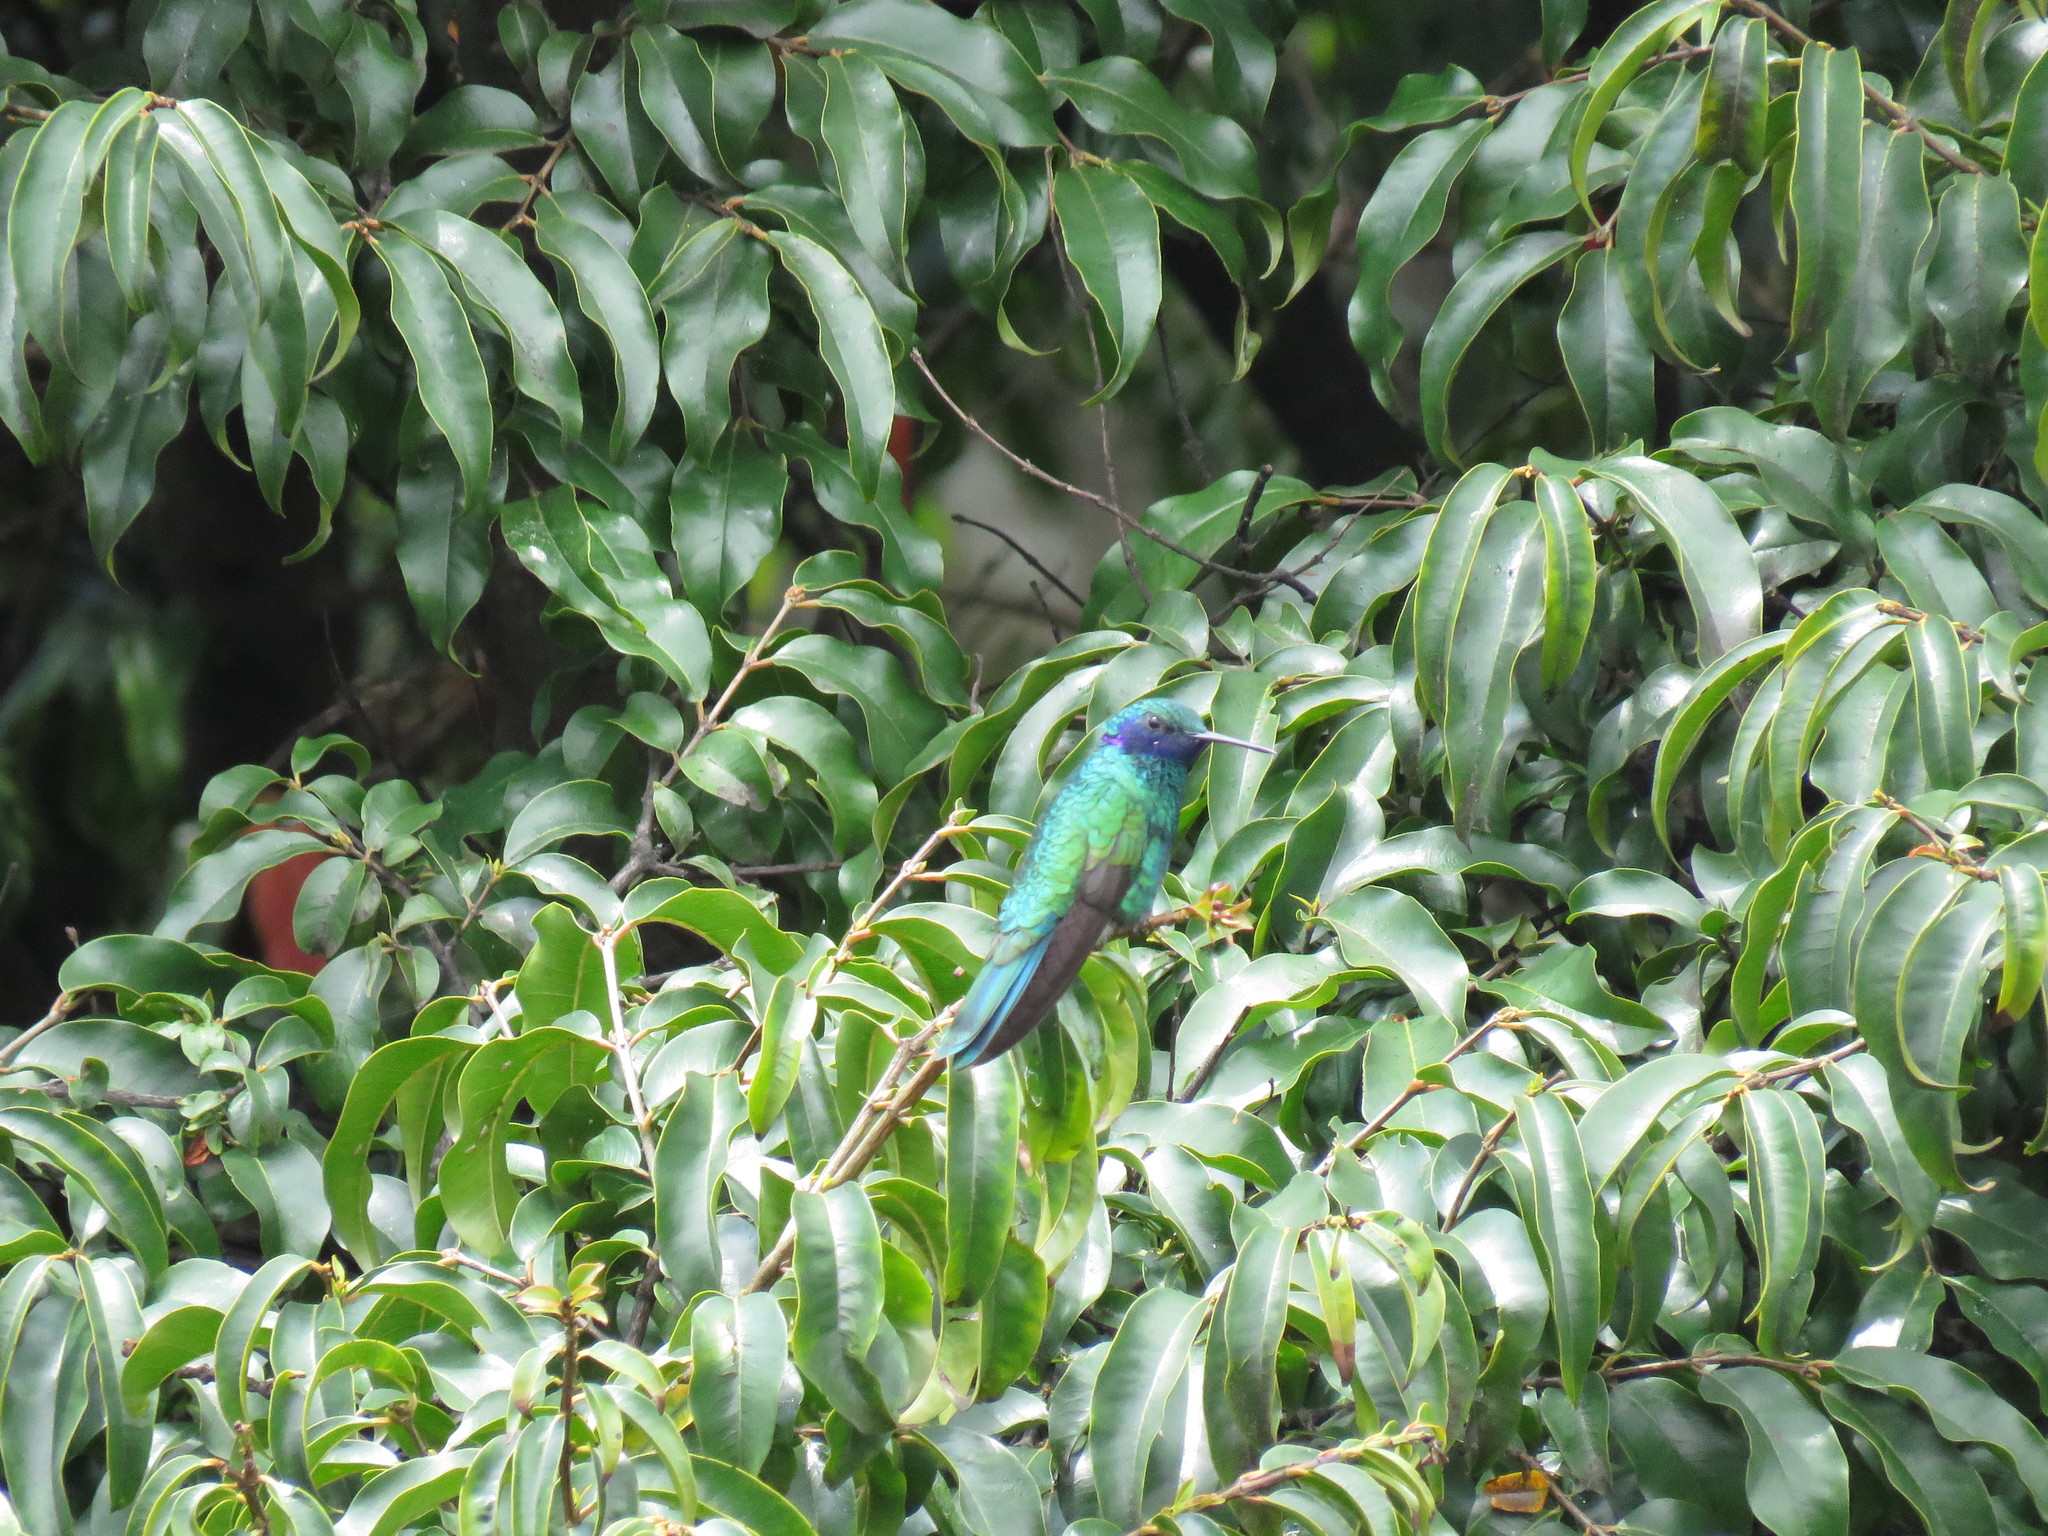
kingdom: Animalia
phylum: Chordata
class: Aves
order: Apodiformes
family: Trochilidae
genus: Colibri
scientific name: Colibri coruscans
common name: Sparkling violetear
